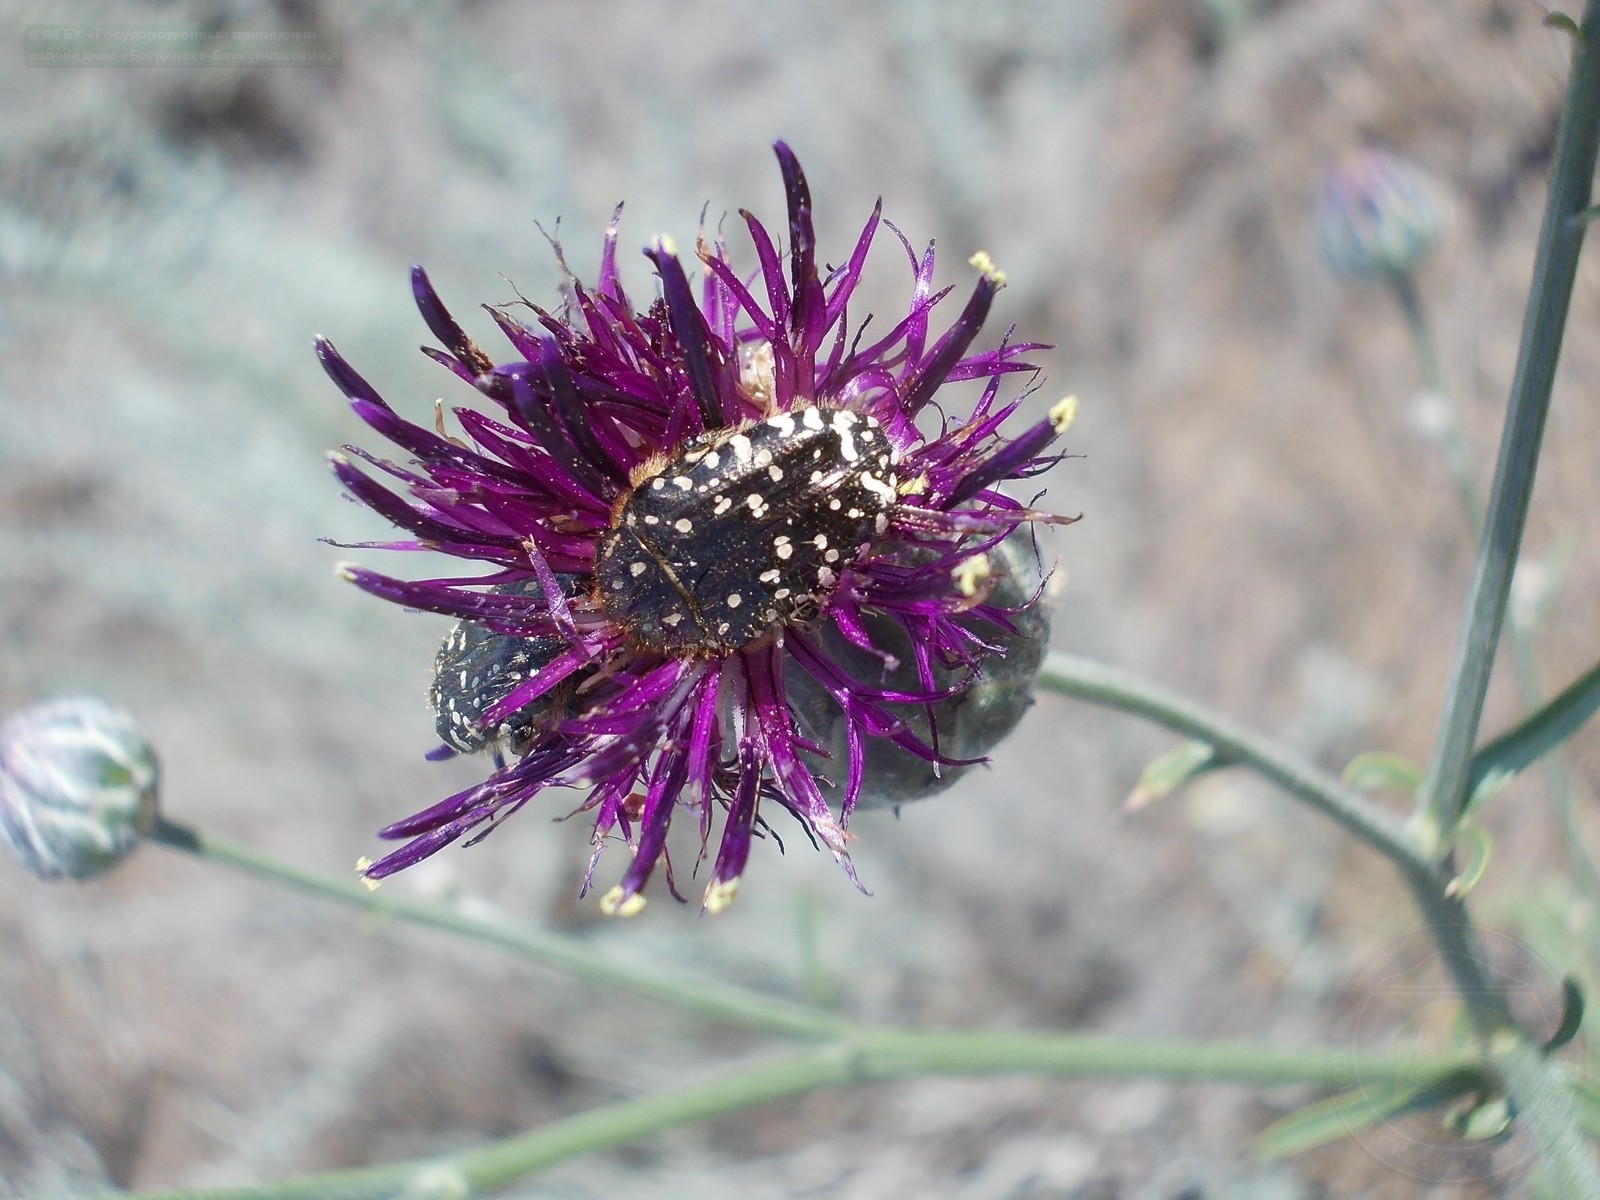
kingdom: Animalia
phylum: Arthropoda
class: Insecta
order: Coleoptera
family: Scarabaeidae
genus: Oxythyrea
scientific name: Oxythyrea funesta
